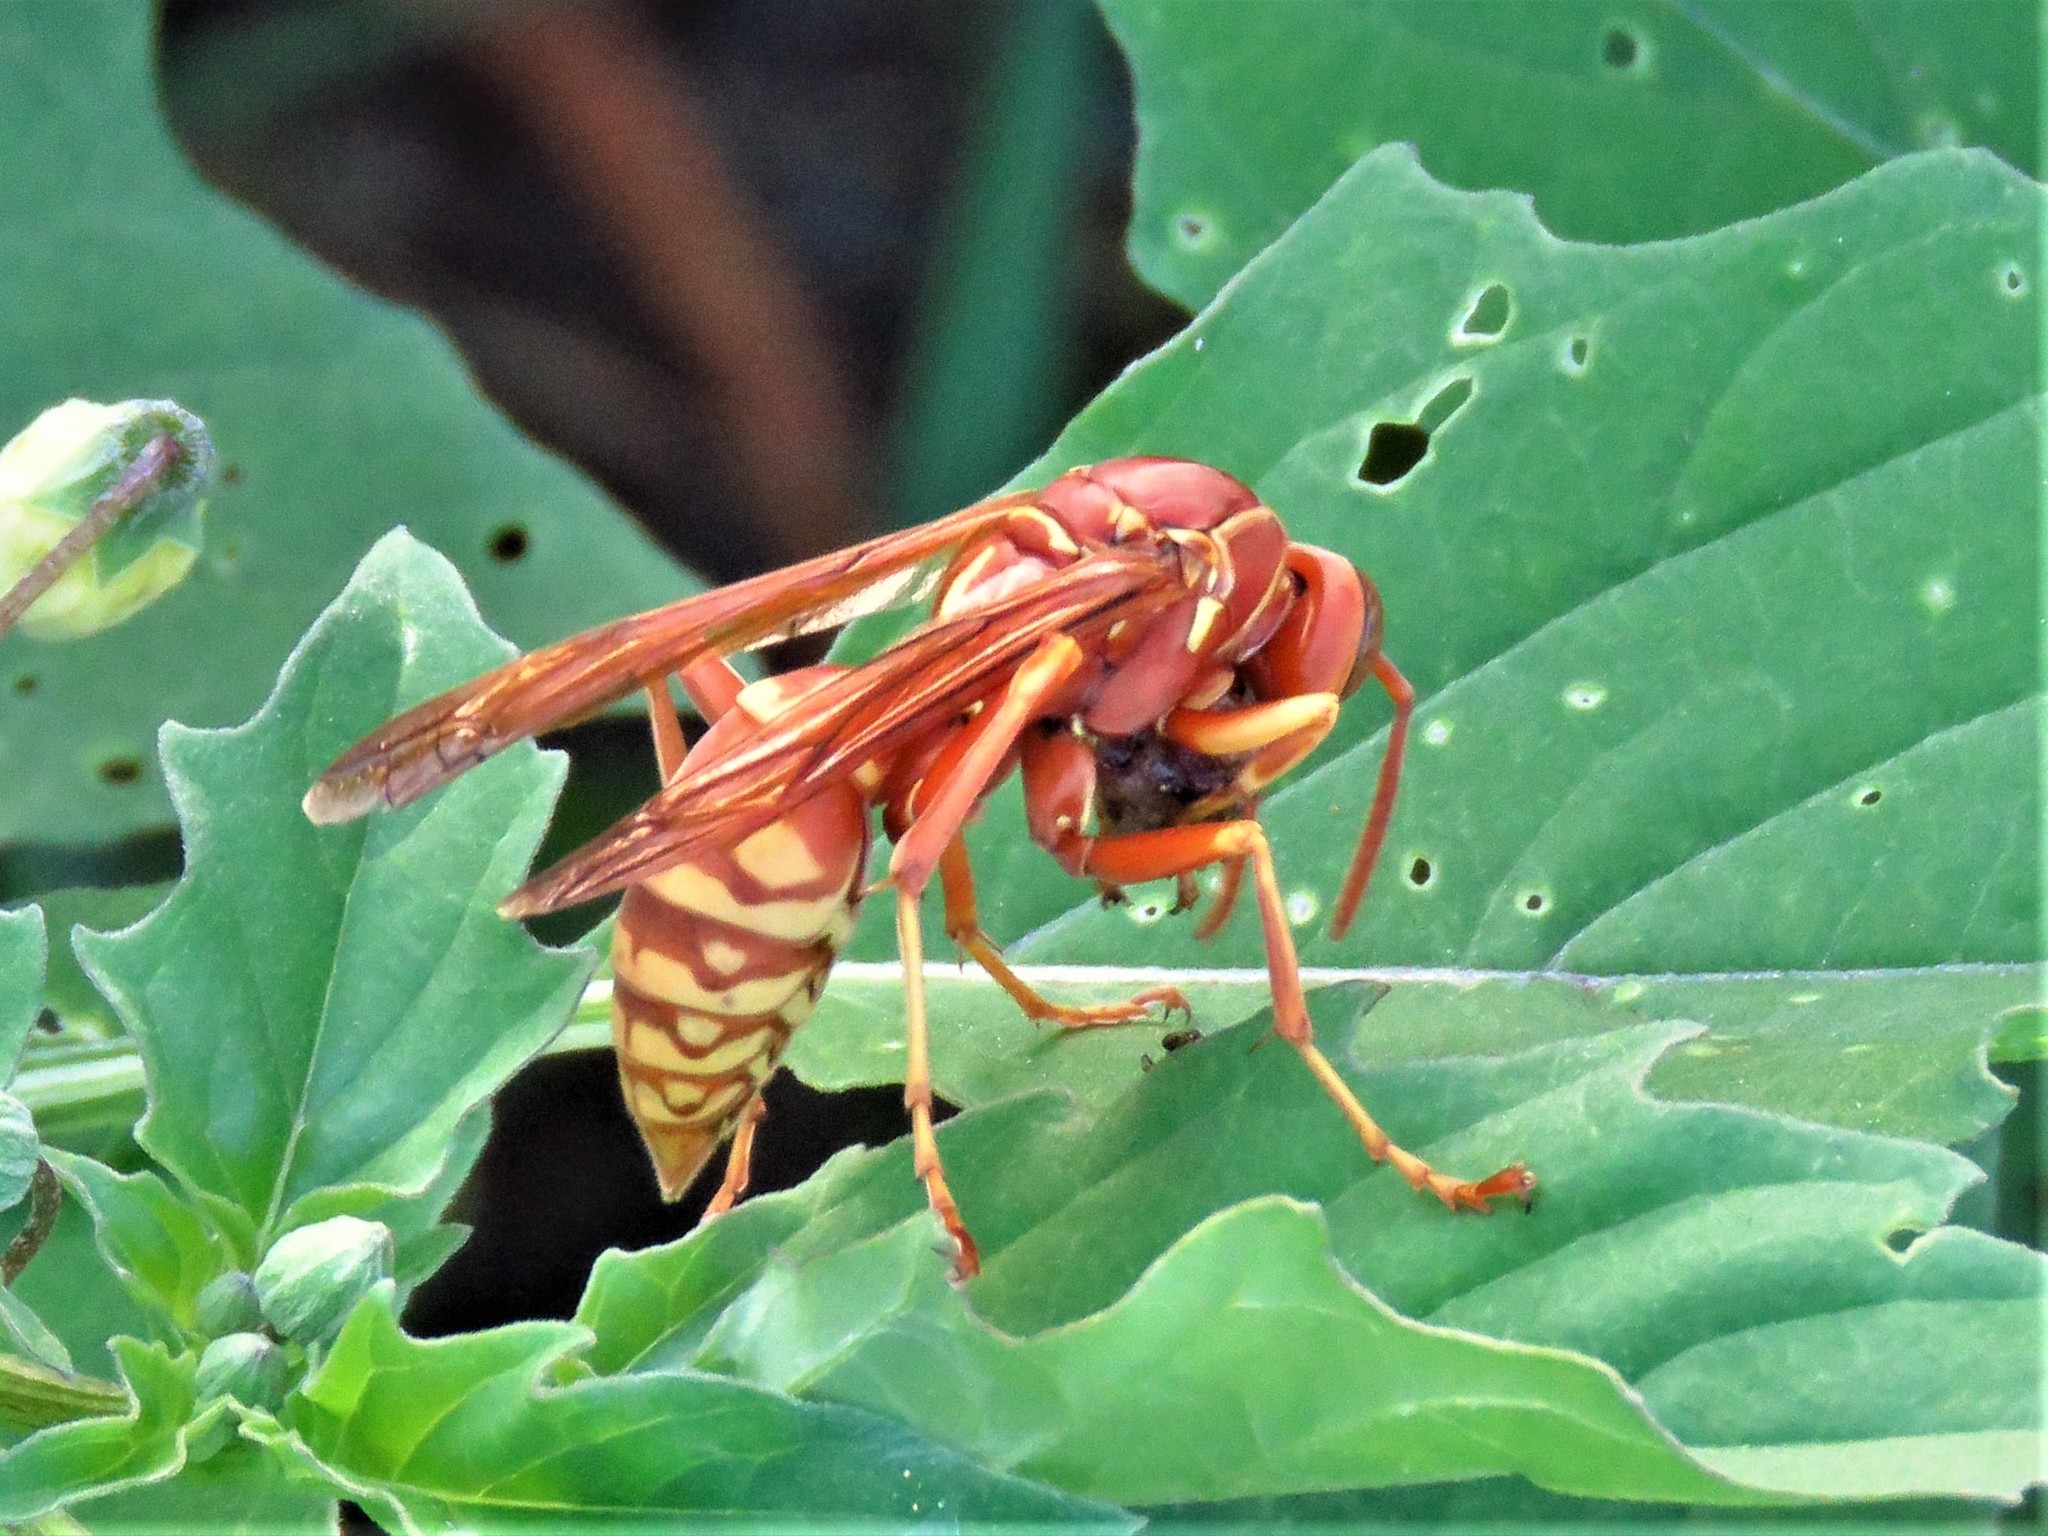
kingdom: Animalia
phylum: Arthropoda
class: Insecta
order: Hymenoptera
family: Eumenidae
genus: Polistes
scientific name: Polistes apachus
